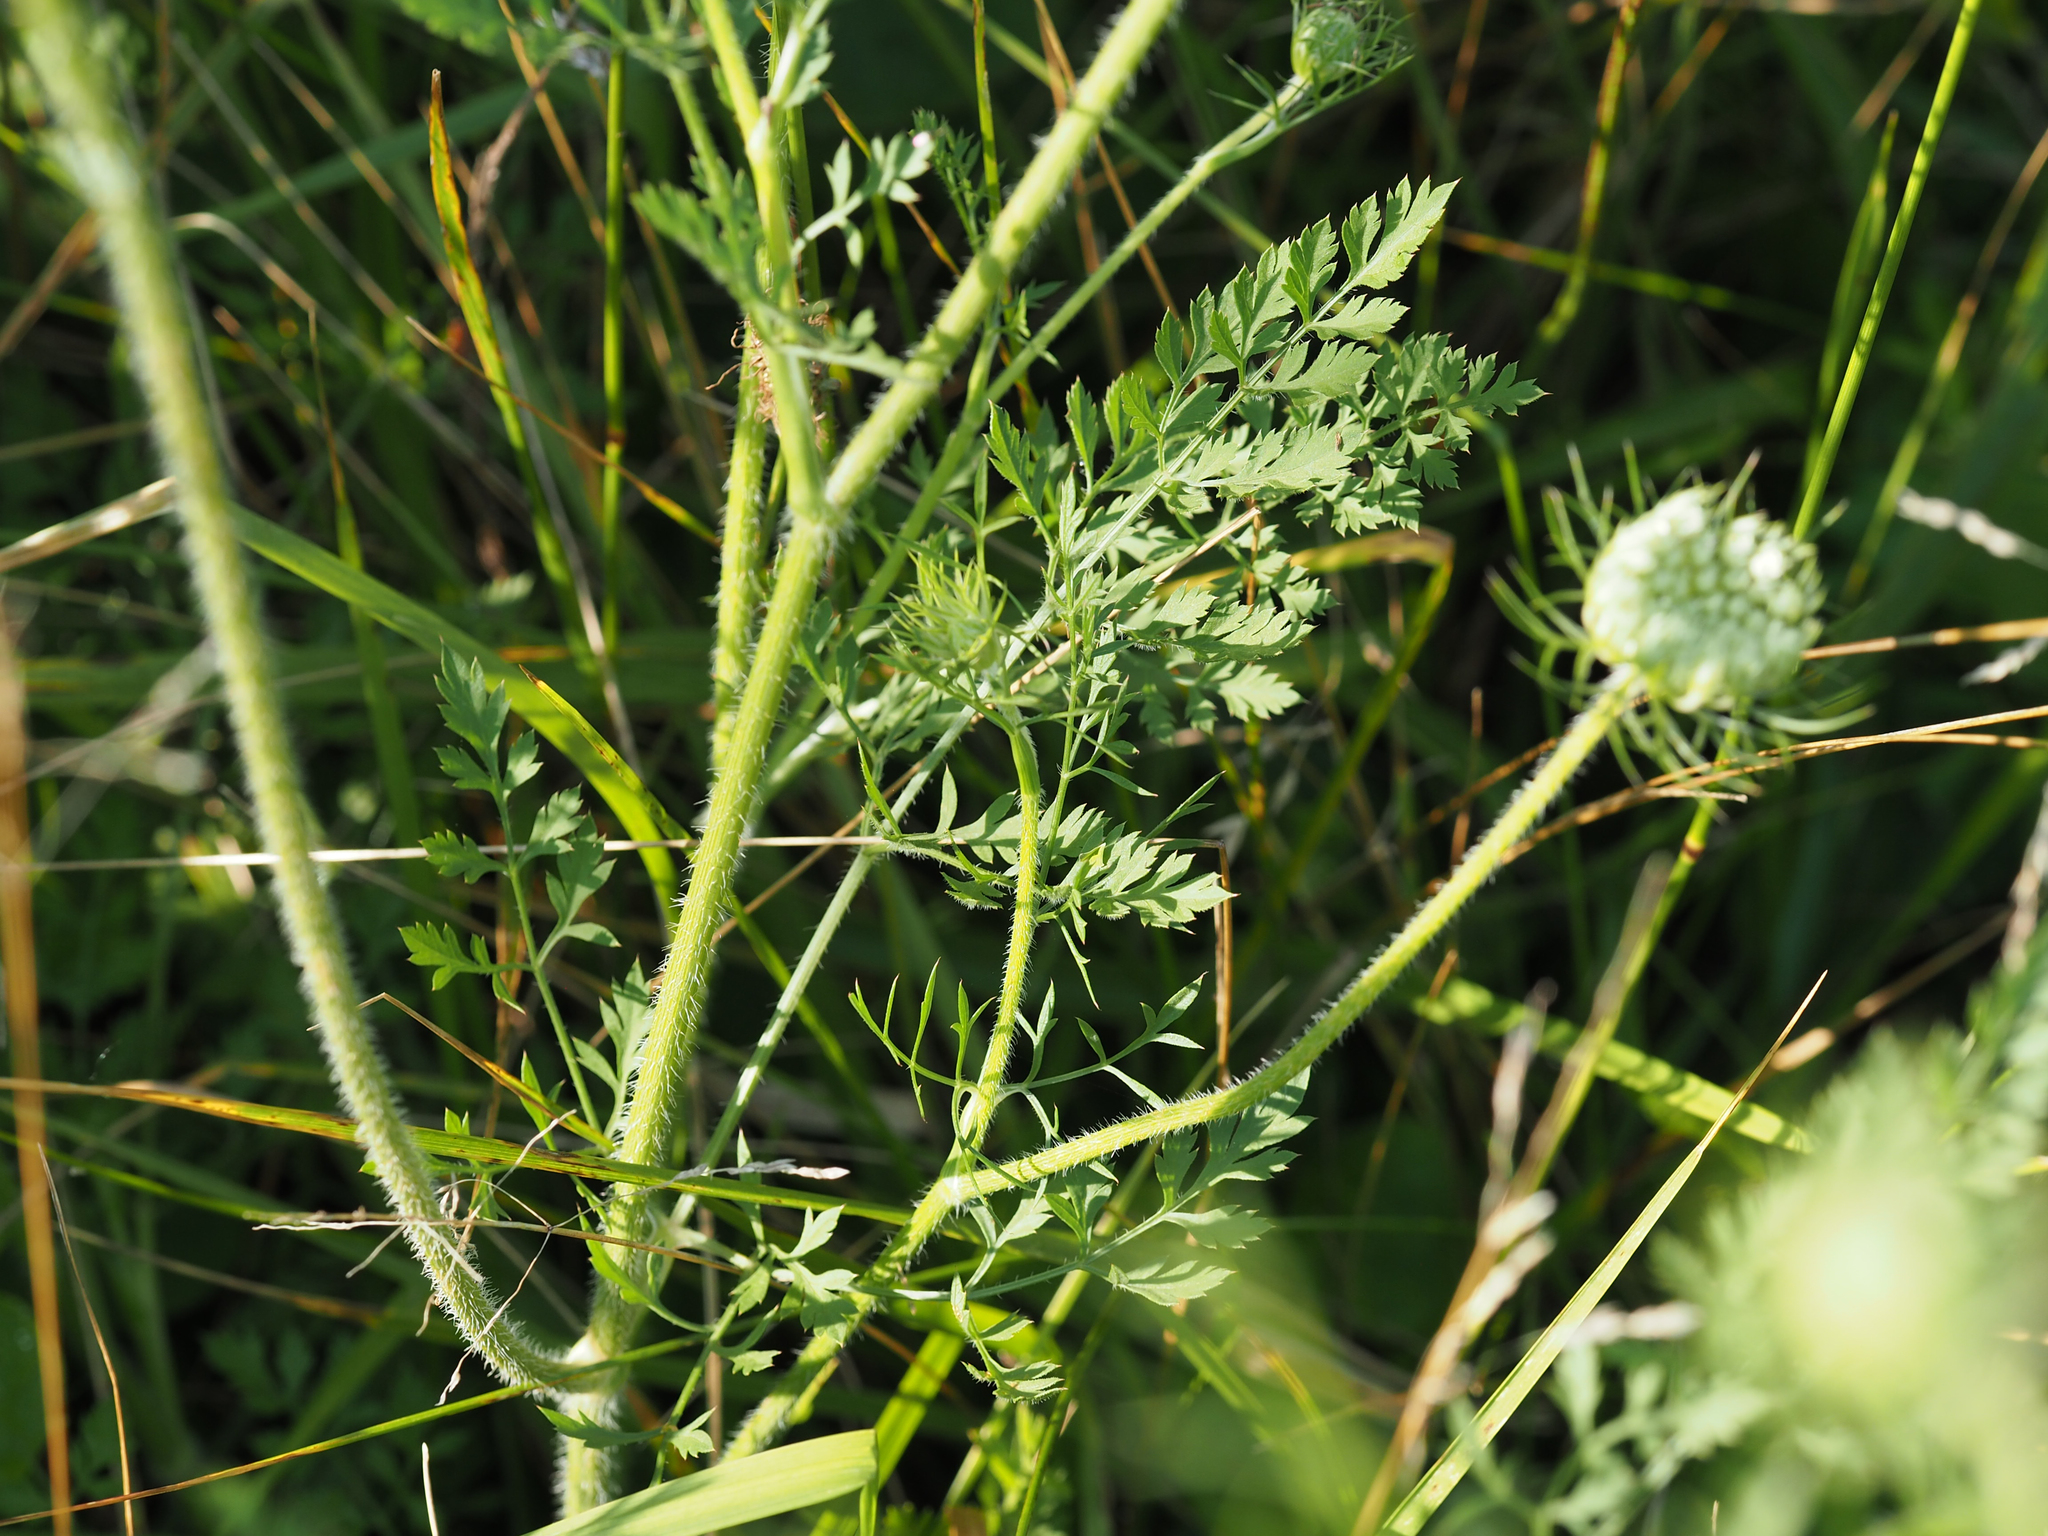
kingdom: Plantae
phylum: Tracheophyta
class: Magnoliopsida
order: Apiales
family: Apiaceae
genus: Daucus
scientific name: Daucus carota
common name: Wild carrot
